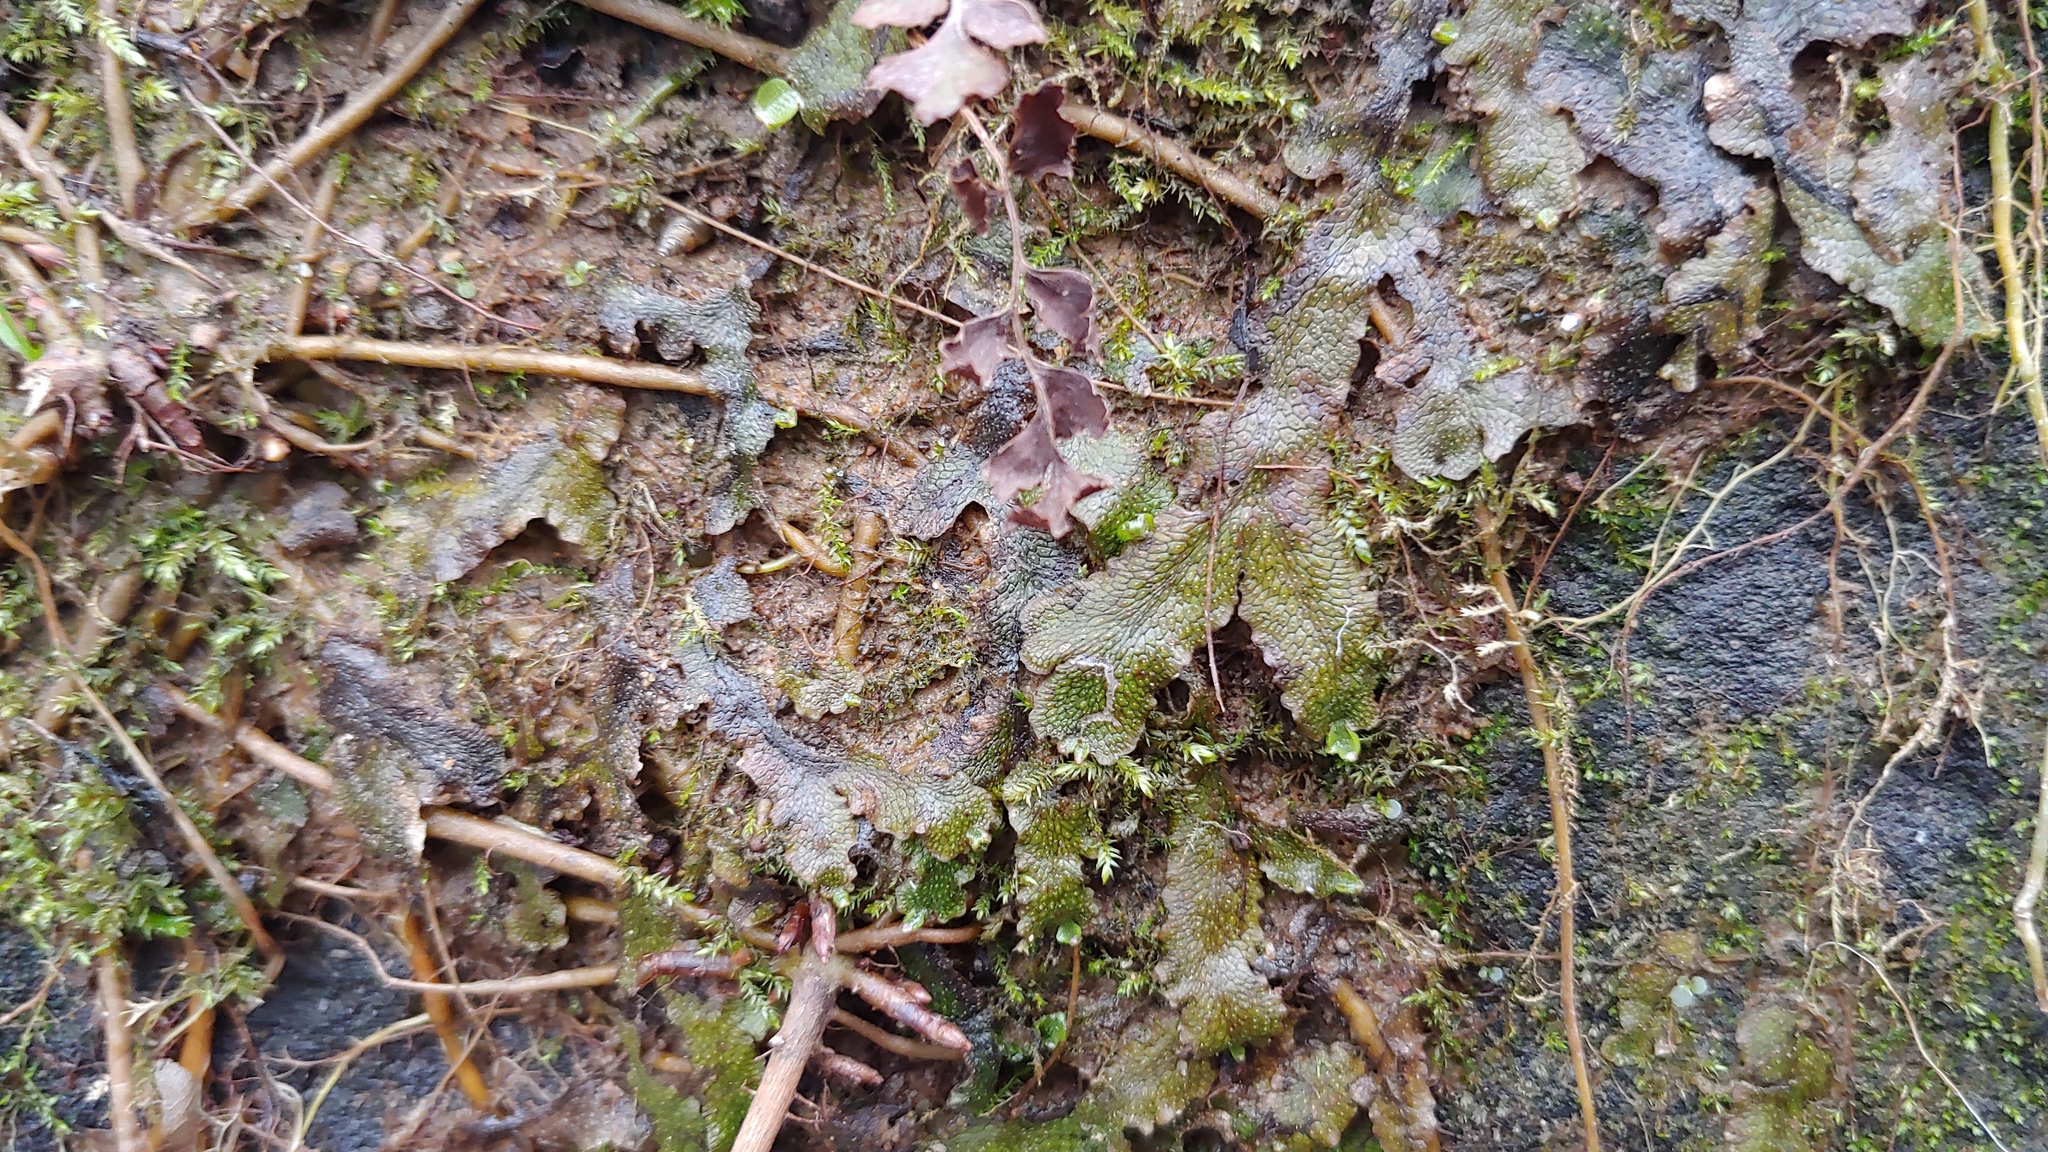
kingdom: Plantae
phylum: Marchantiophyta
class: Marchantiopsida
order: Marchantiales
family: Conocephalaceae
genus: Conocephalum
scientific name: Conocephalum salebrosum
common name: Cat-tongue liverwort
